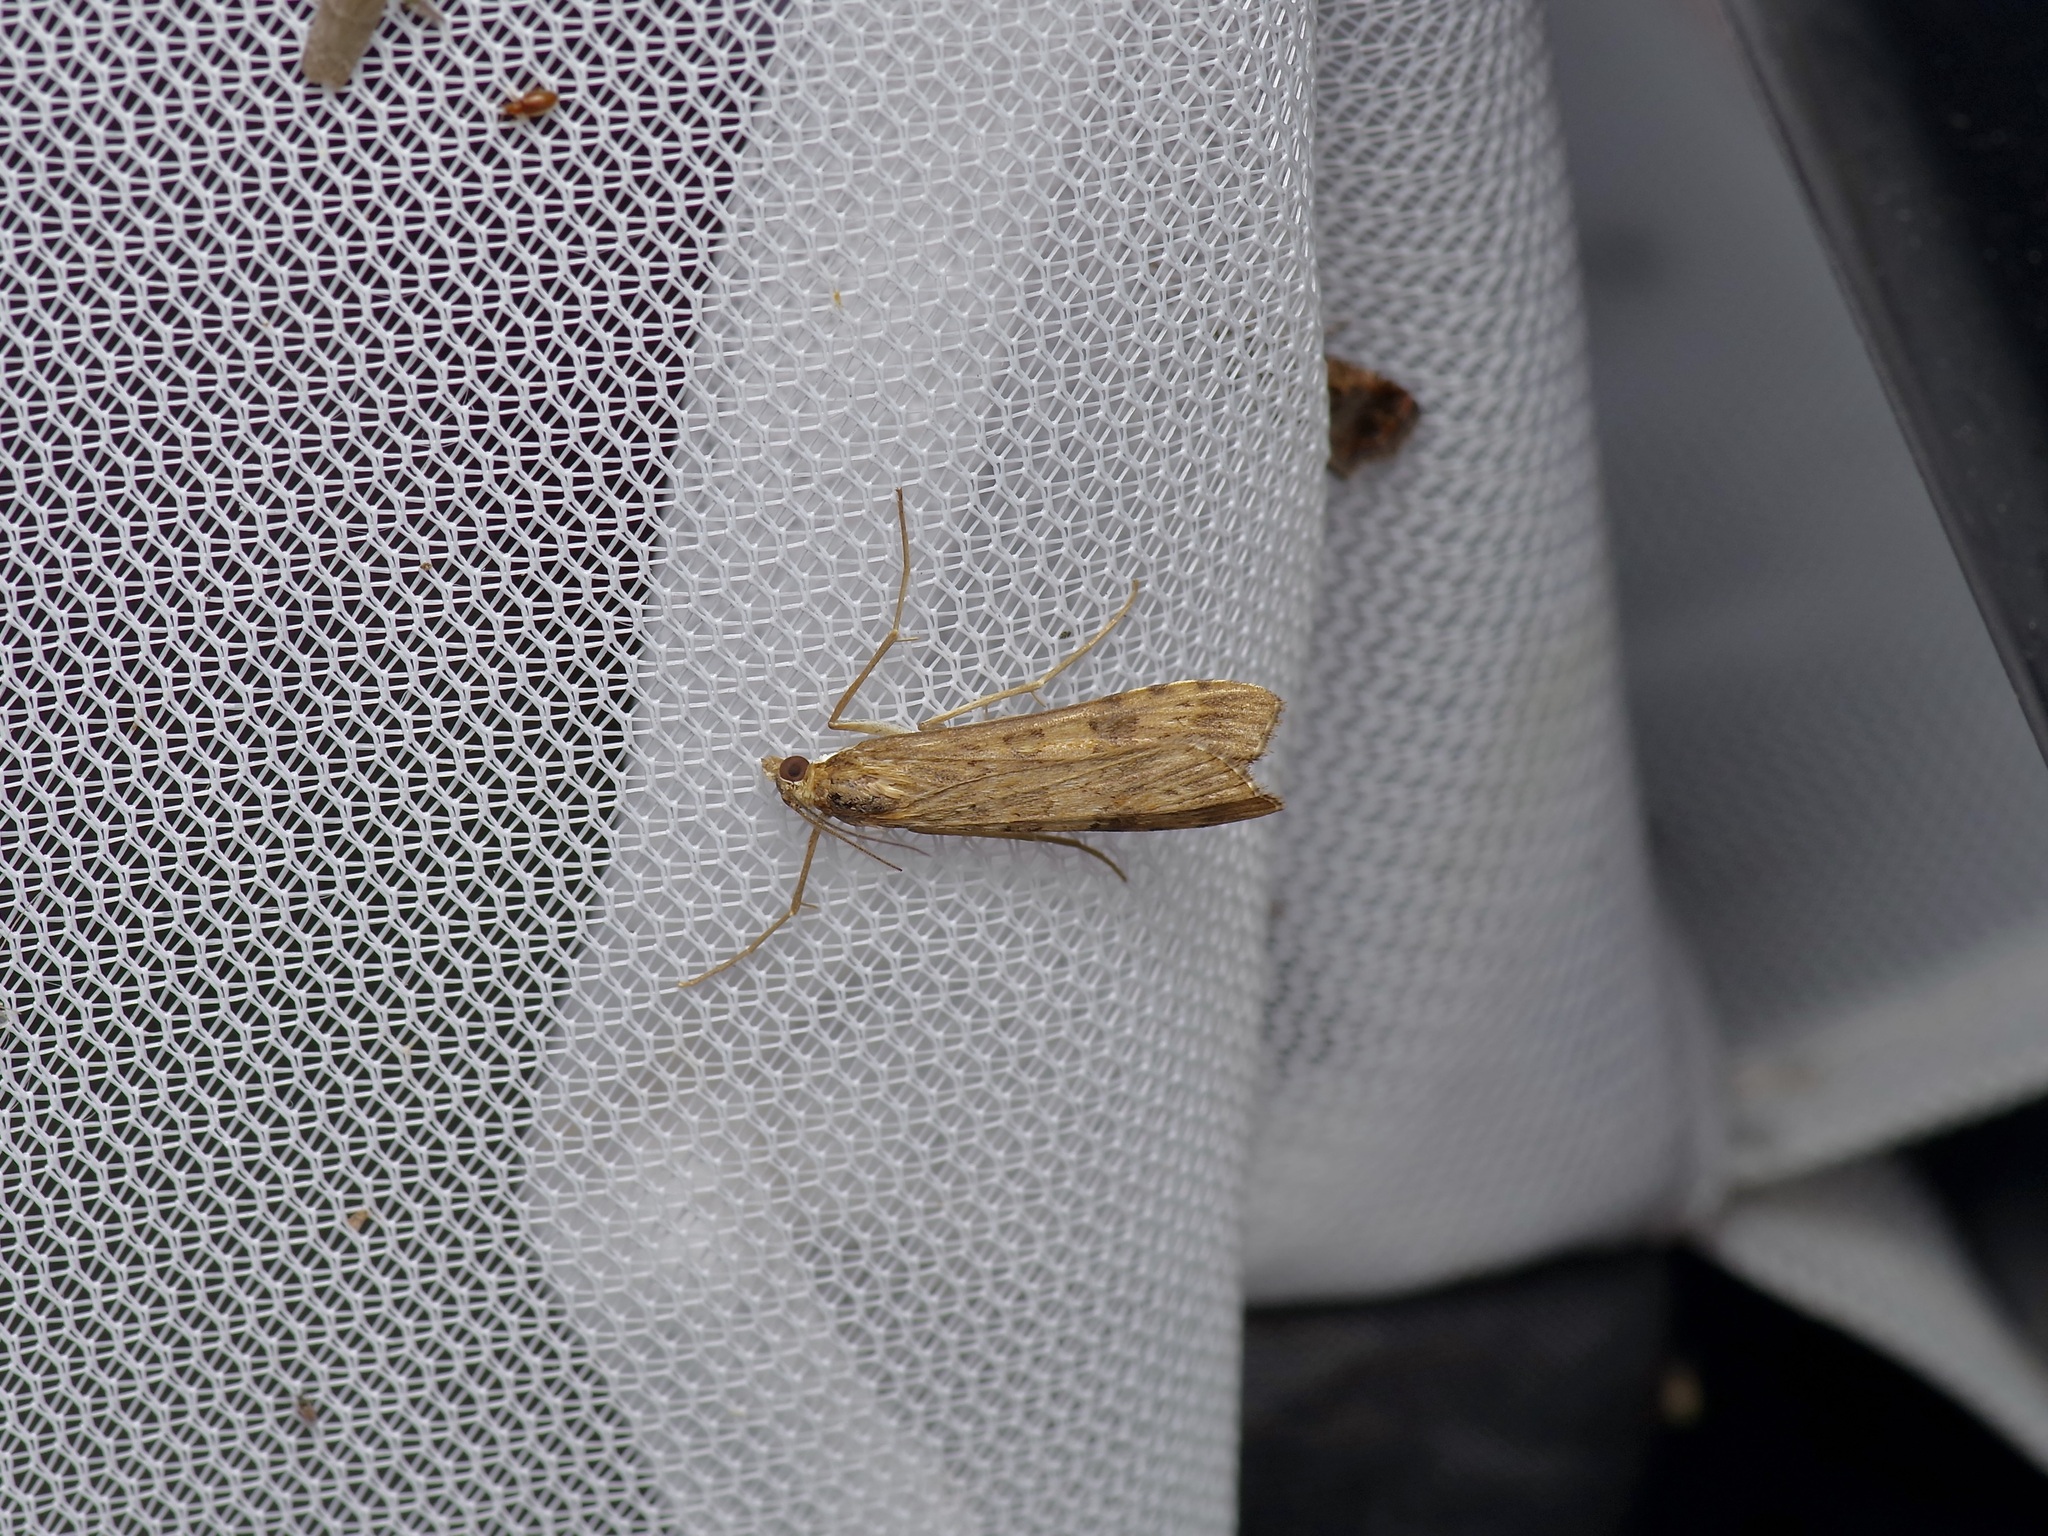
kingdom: Animalia
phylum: Arthropoda
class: Insecta
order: Lepidoptera
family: Crambidae
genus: Nomophila
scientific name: Nomophila nearctica
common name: American rush veneer
